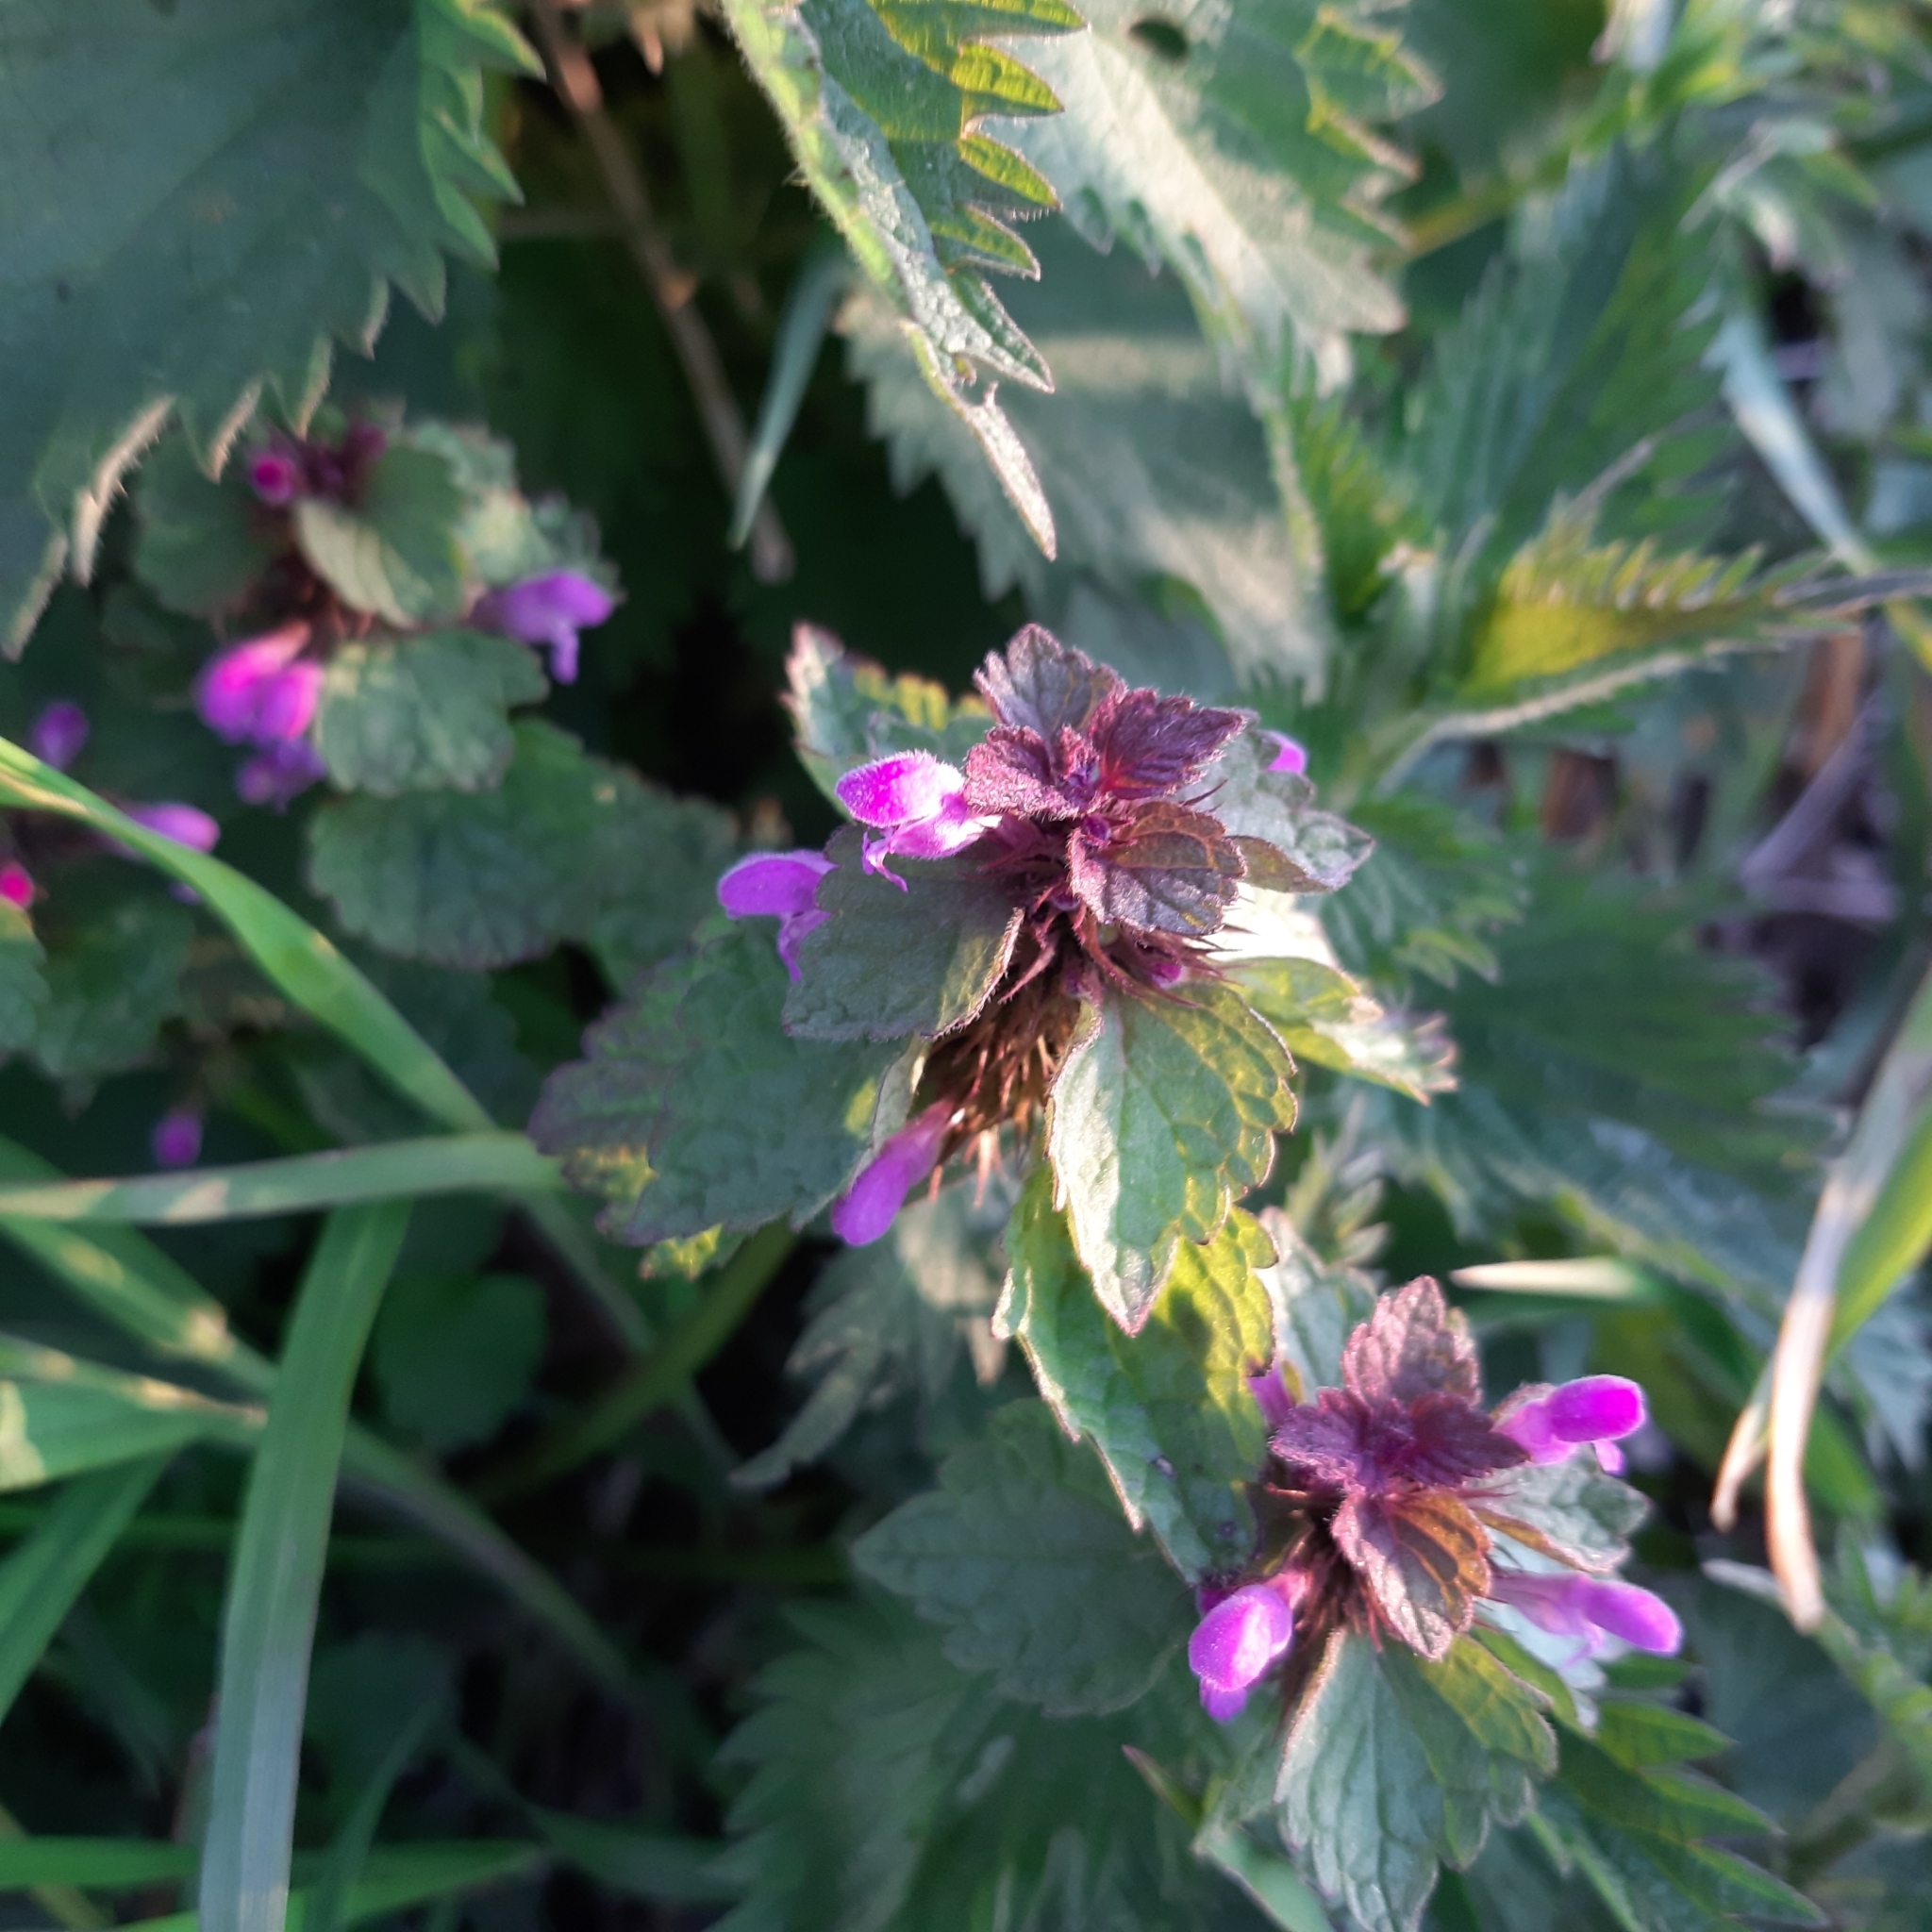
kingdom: Plantae
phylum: Tracheophyta
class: Magnoliopsida
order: Lamiales
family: Lamiaceae
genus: Lamium
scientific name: Lamium purpureum
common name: Red dead-nettle
